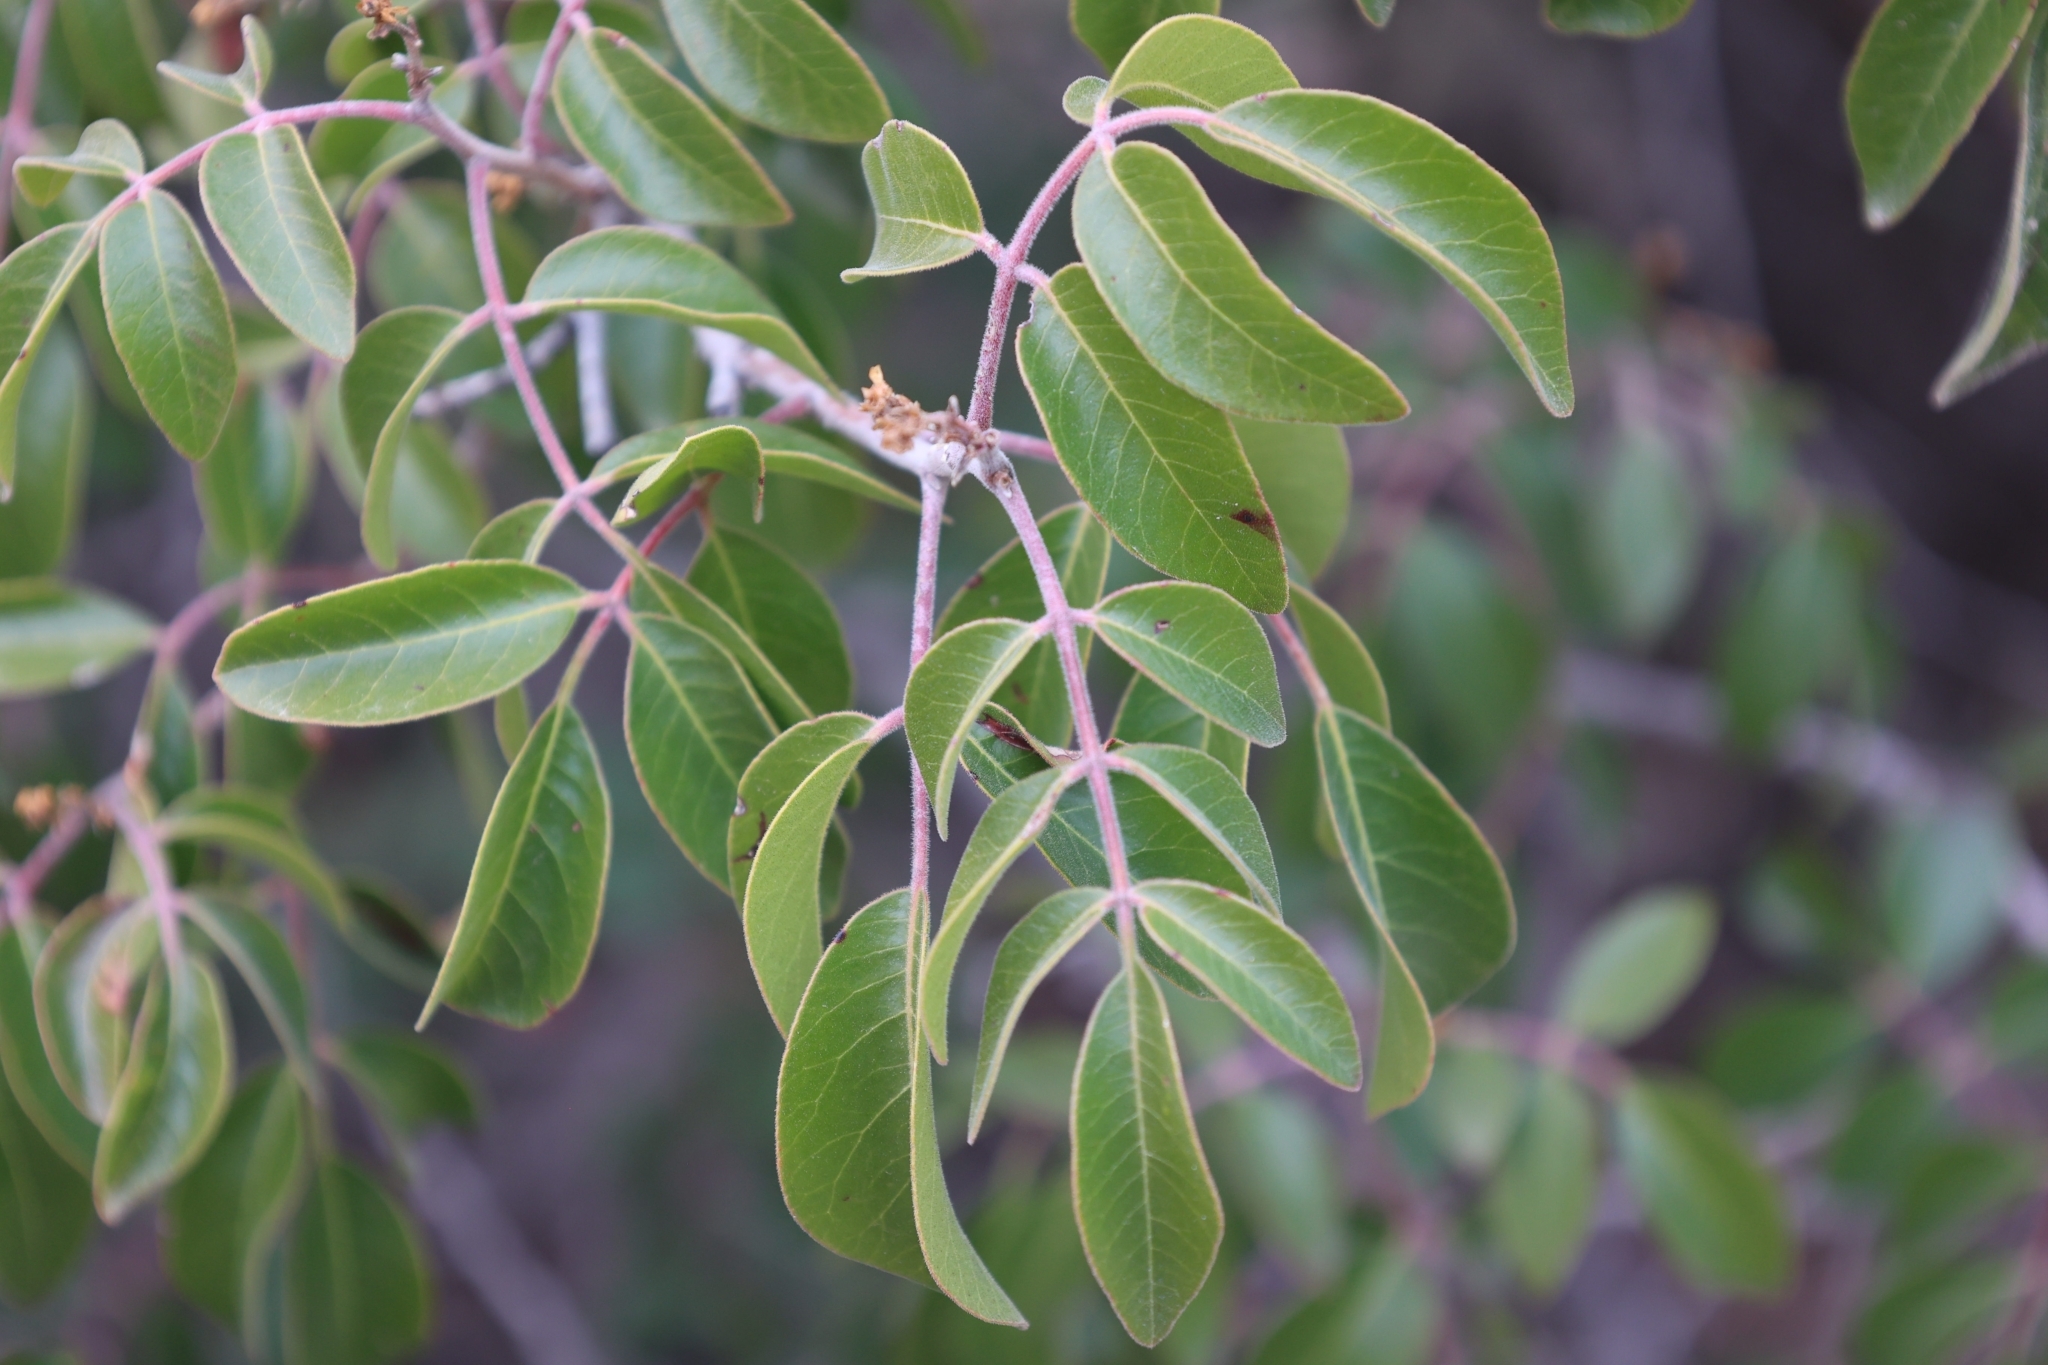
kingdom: Plantae
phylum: Tracheophyta
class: Magnoliopsida
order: Sapindales
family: Anacardiaceae
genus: Rhus
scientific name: Rhus virens
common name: Evergreen sumac
